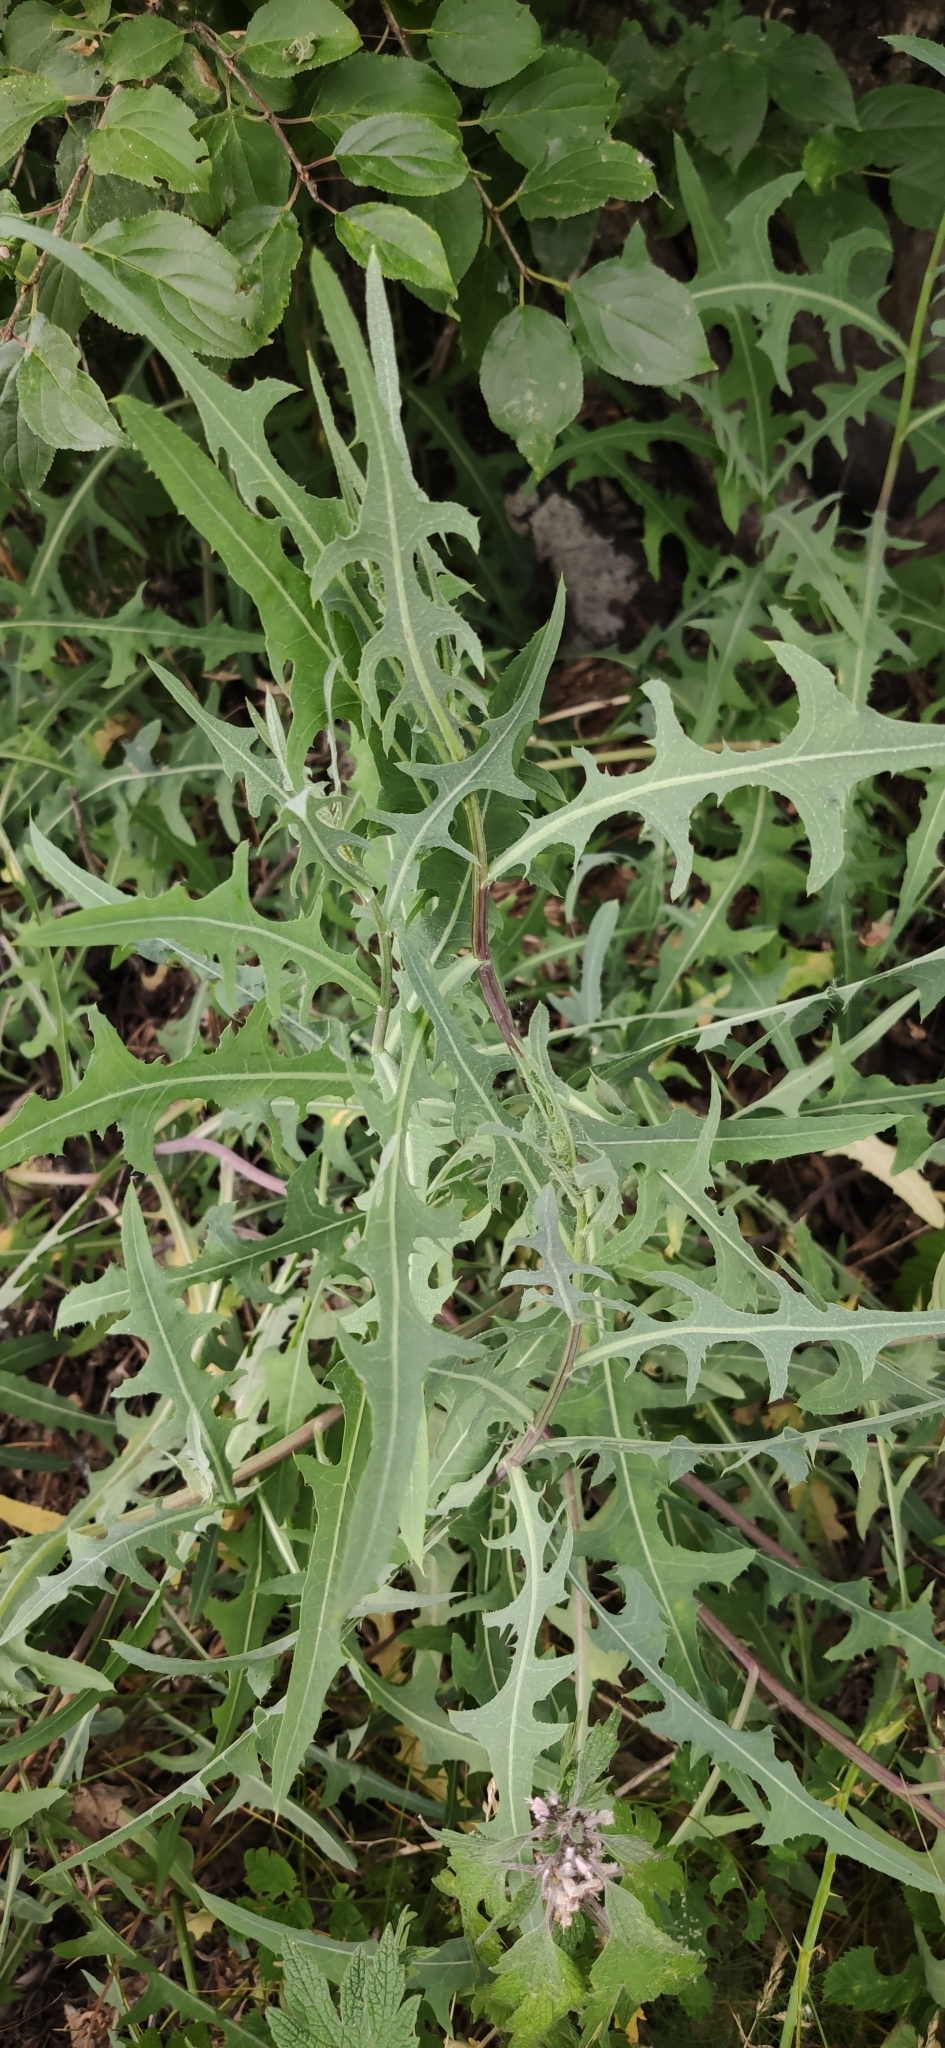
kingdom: Plantae
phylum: Tracheophyta
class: Magnoliopsida
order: Asterales
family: Asteraceae
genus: Lactuca
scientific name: Lactuca tatarica
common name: Blue lettuce
